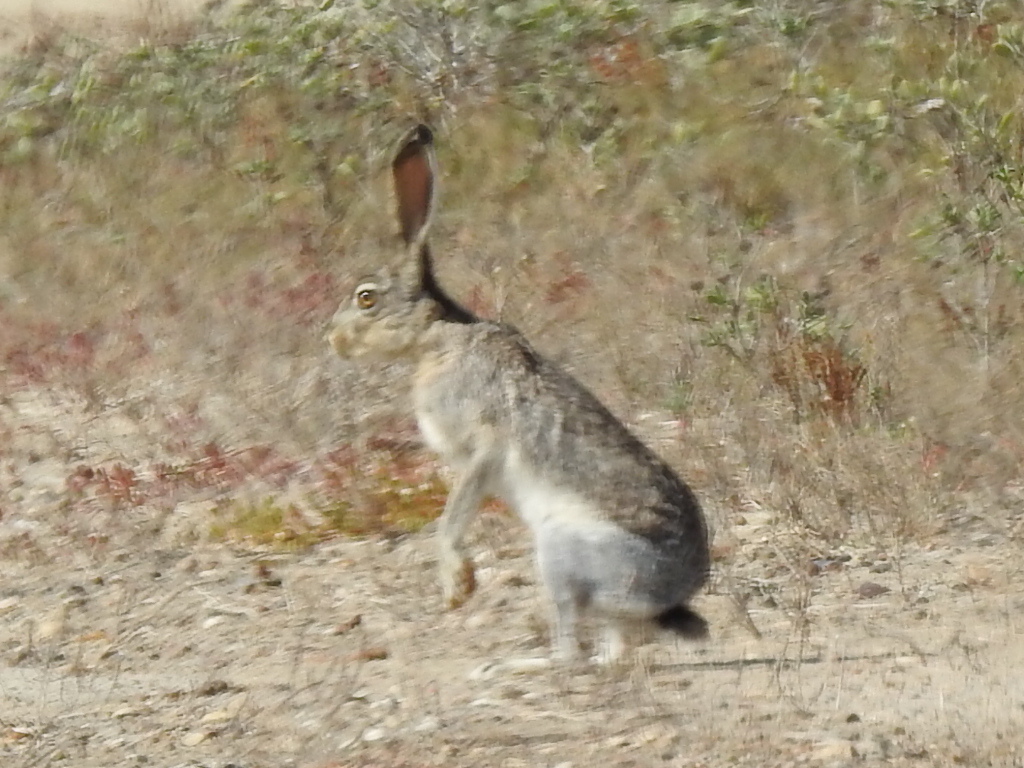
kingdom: Animalia
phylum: Chordata
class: Mammalia
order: Lagomorpha
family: Leporidae
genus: Lepus
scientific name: Lepus californicus
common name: Black-tailed jackrabbit
